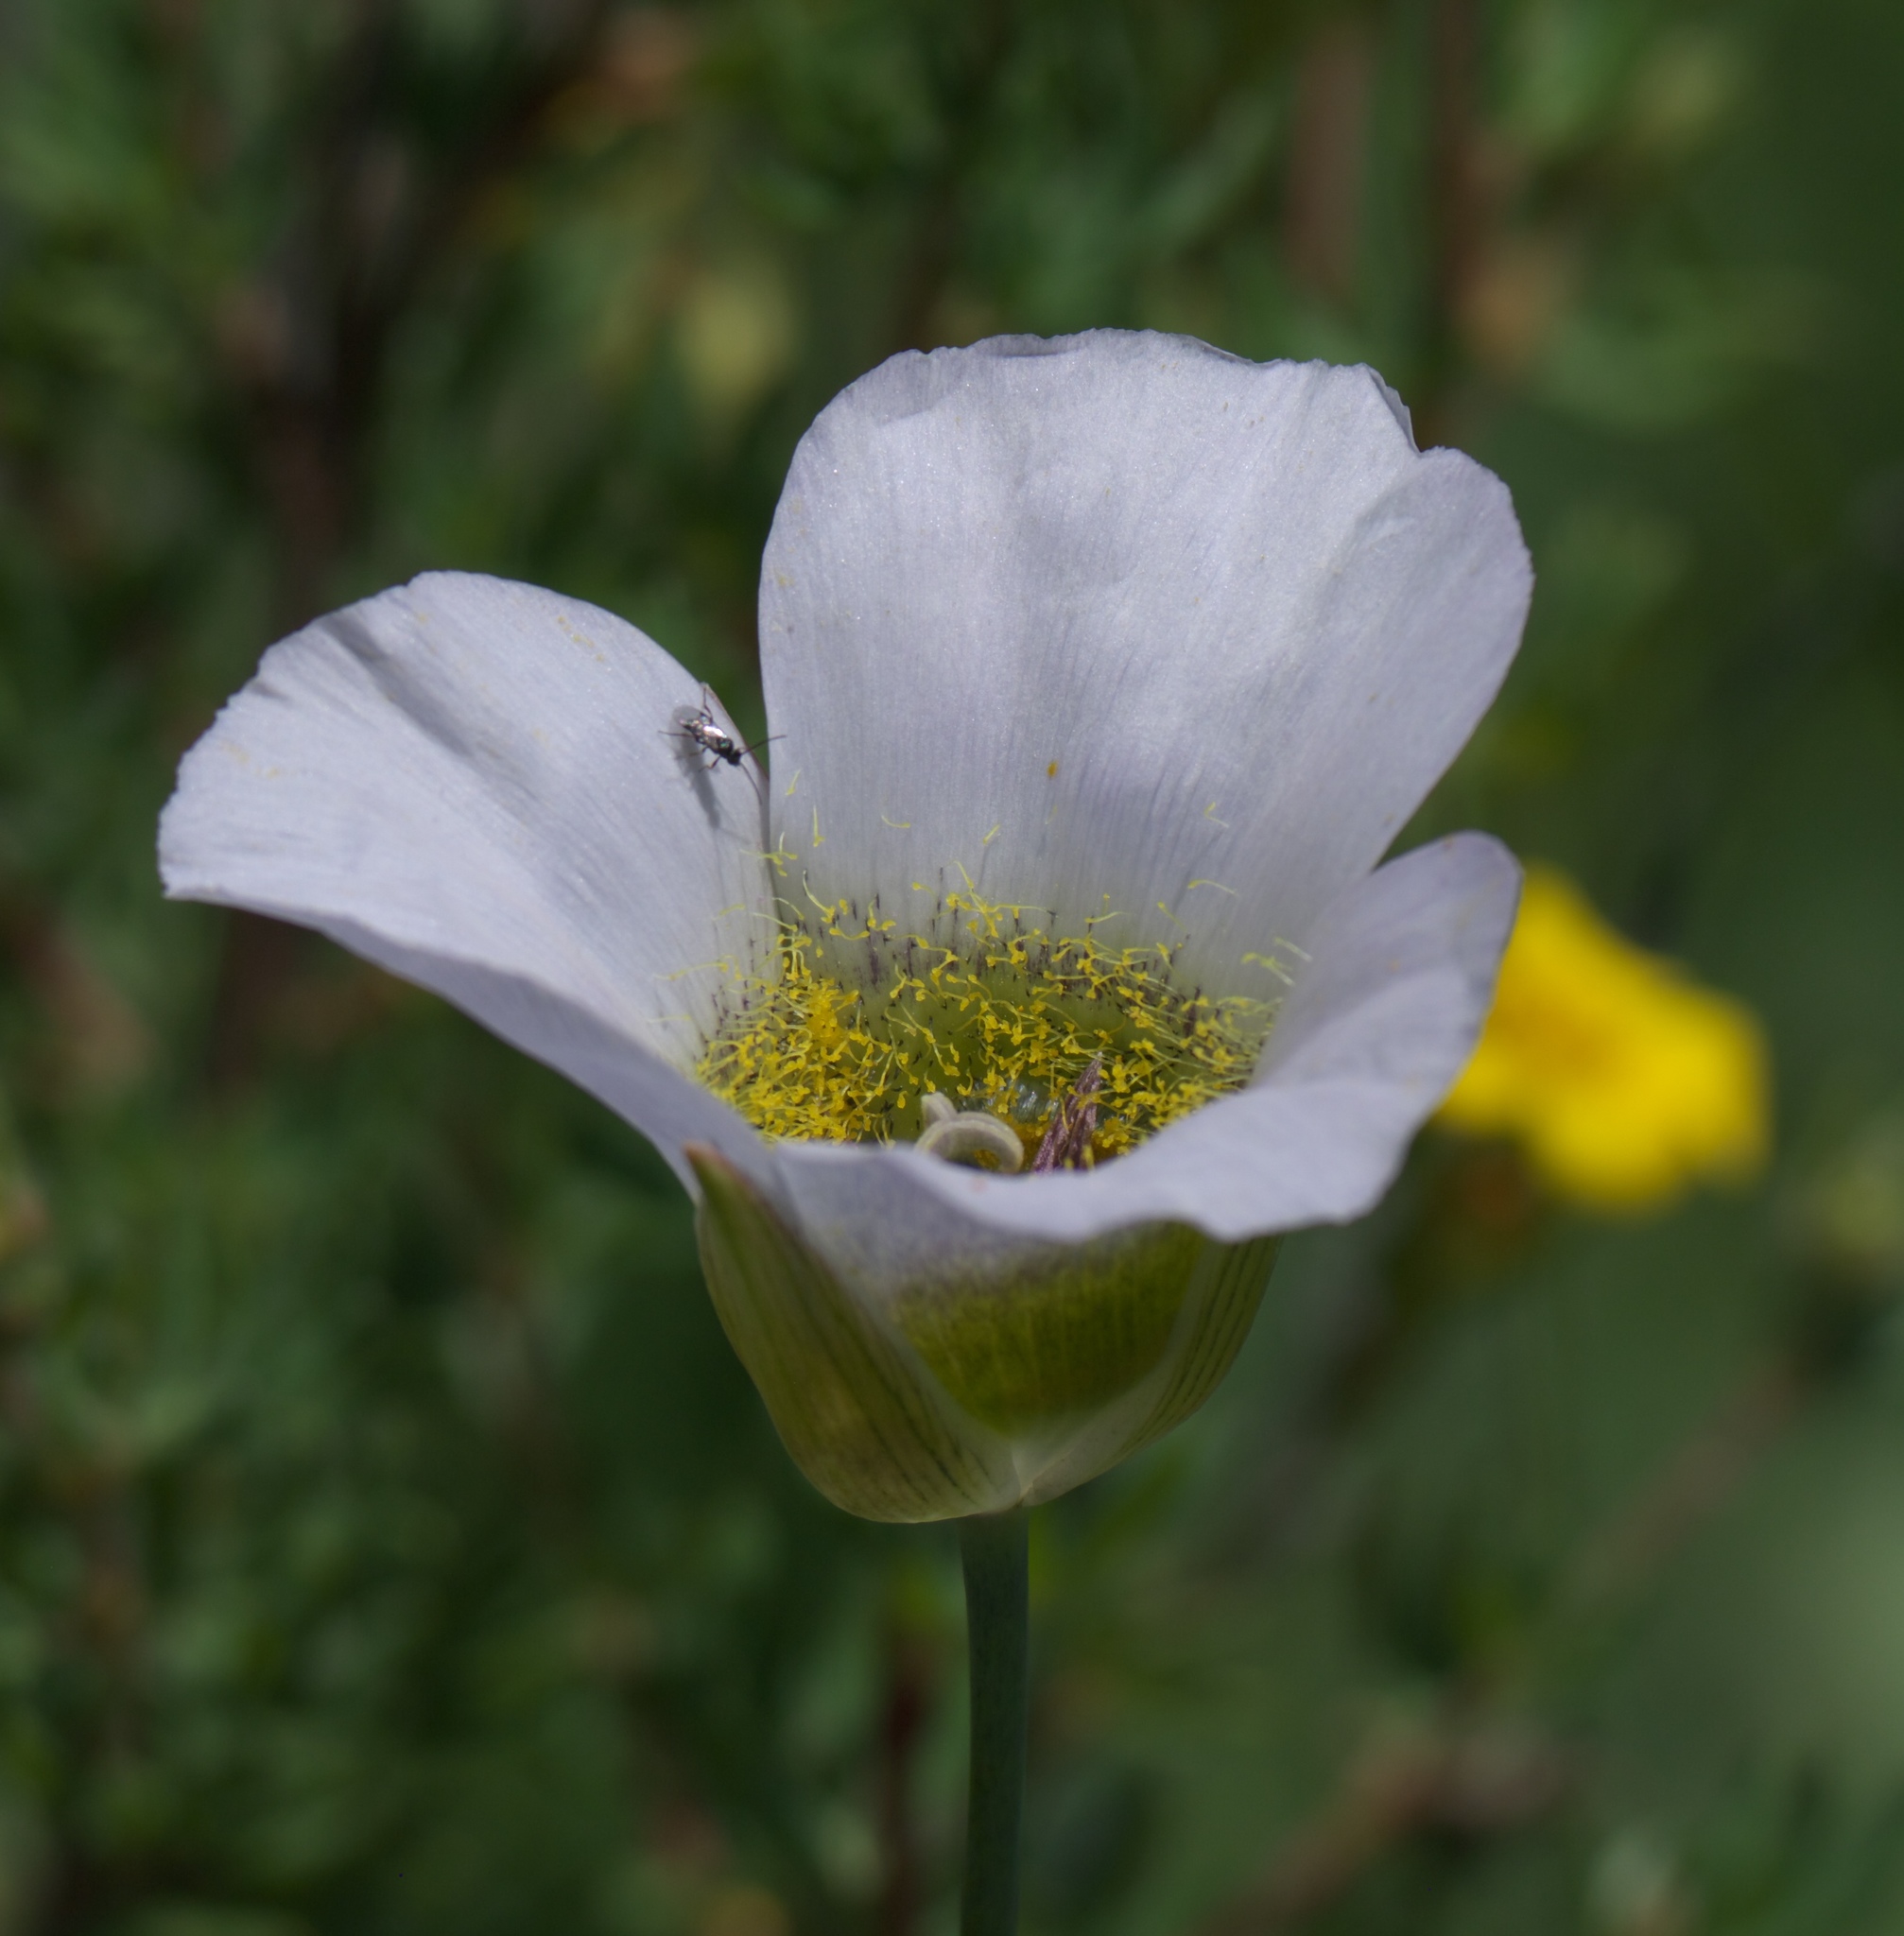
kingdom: Plantae
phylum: Tracheophyta
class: Liliopsida
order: Liliales
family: Liliaceae
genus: Calochortus
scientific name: Calochortus gunnisonii
